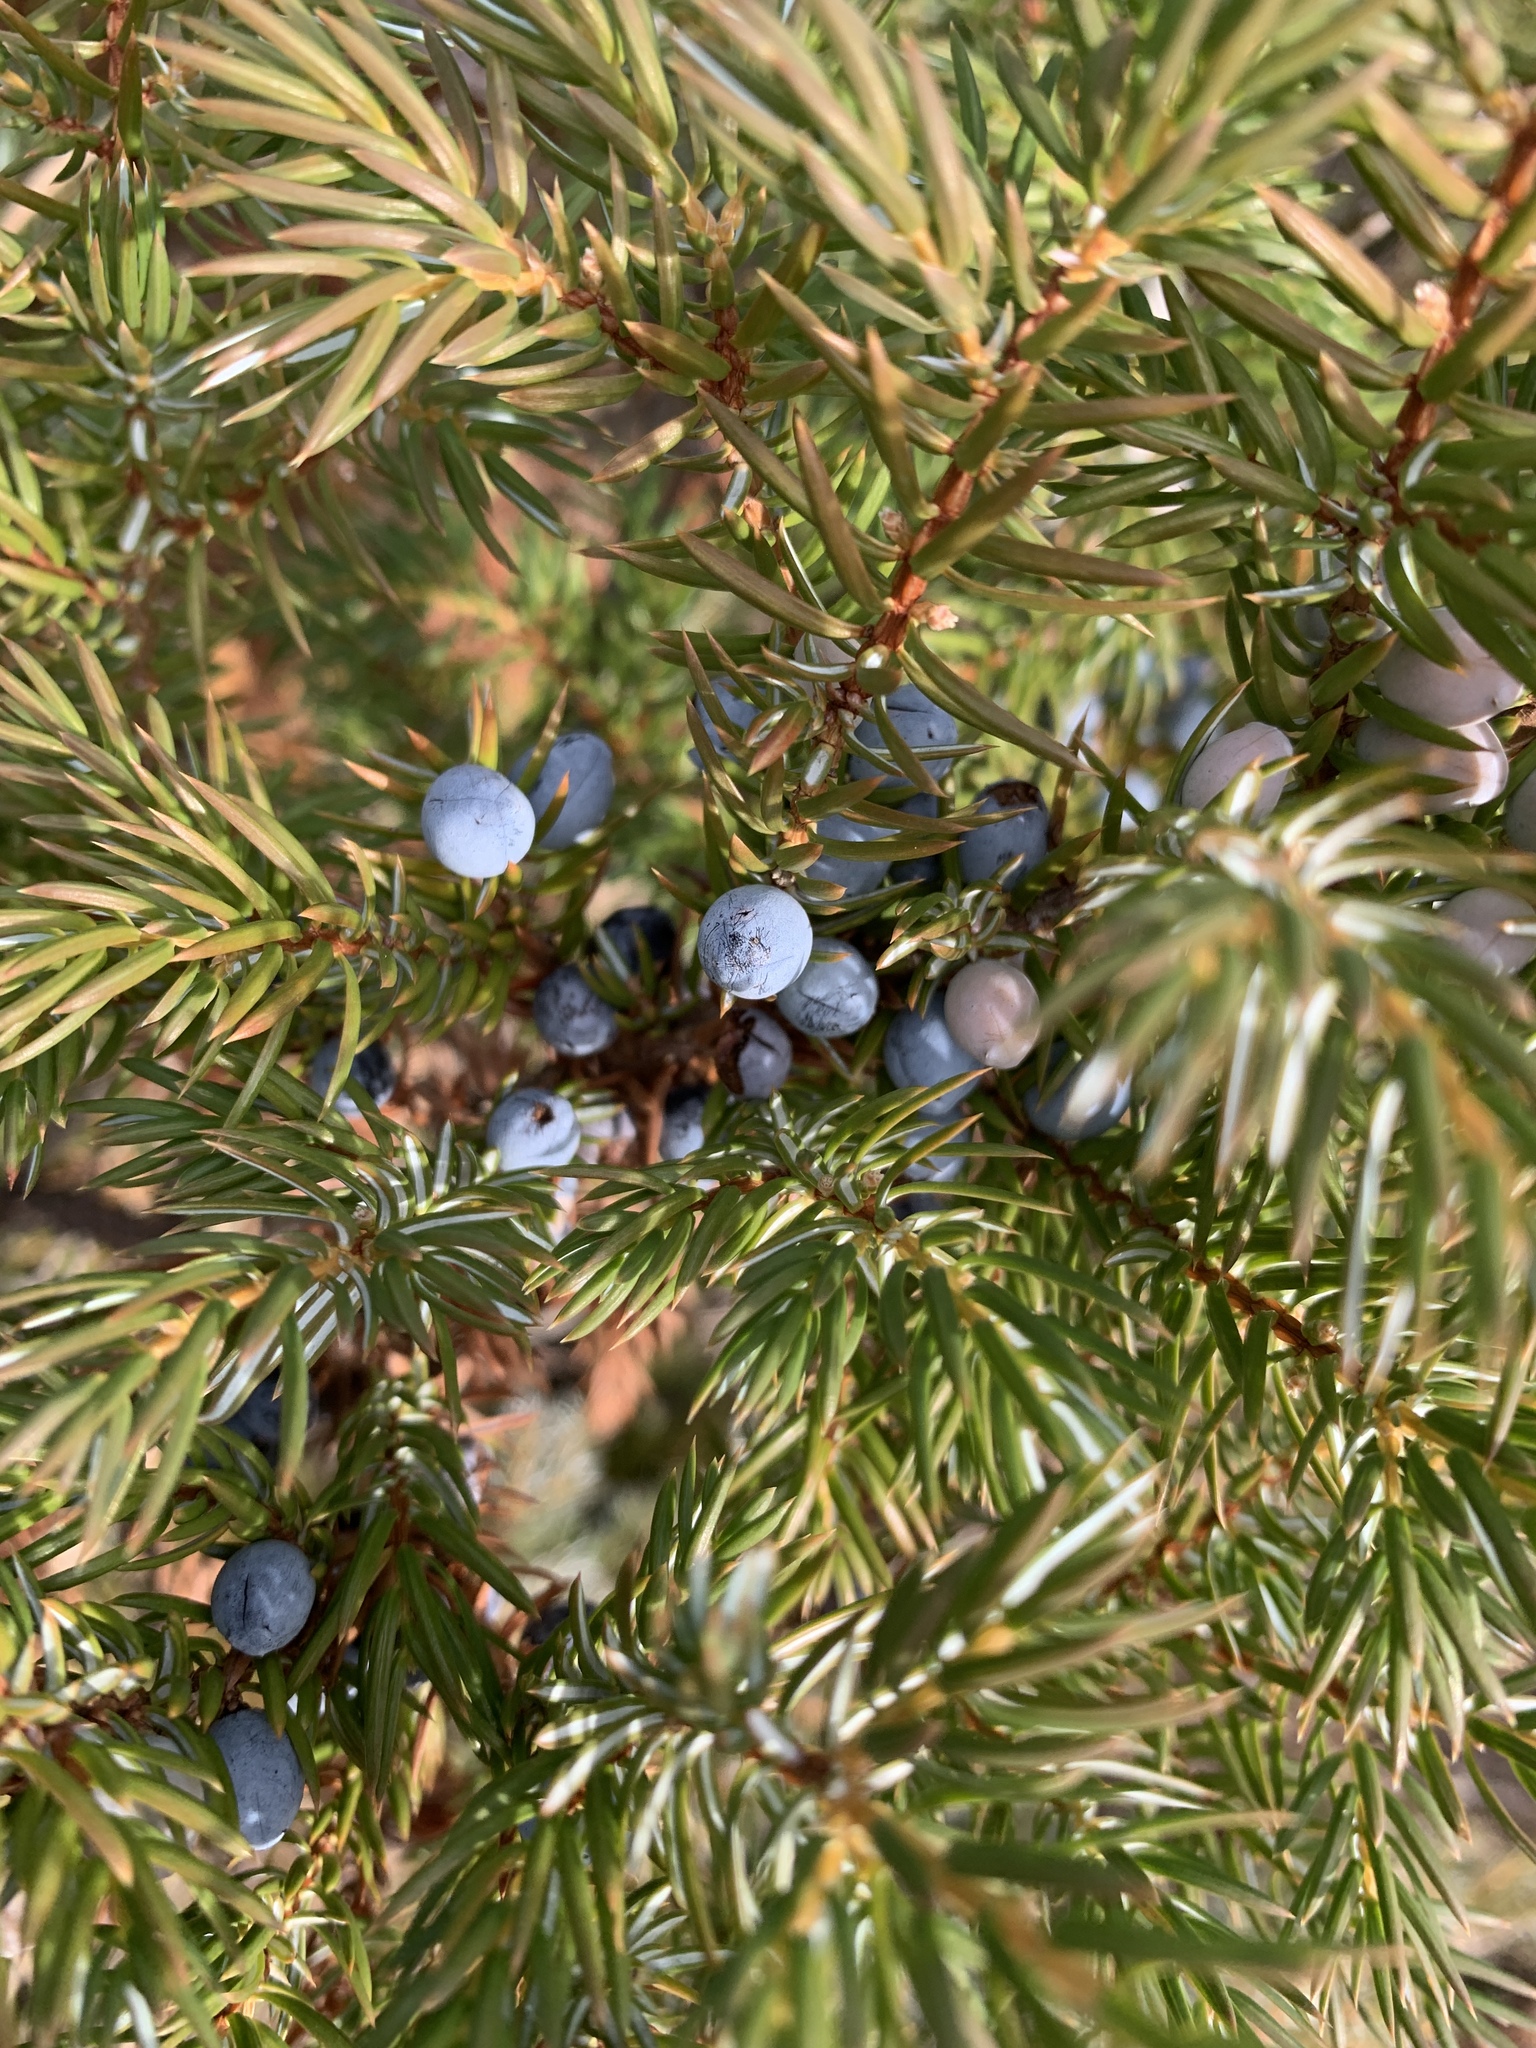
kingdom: Plantae
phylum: Tracheophyta
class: Pinopsida
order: Pinales
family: Cupressaceae
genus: Juniperus
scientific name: Juniperus communis
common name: Common juniper
